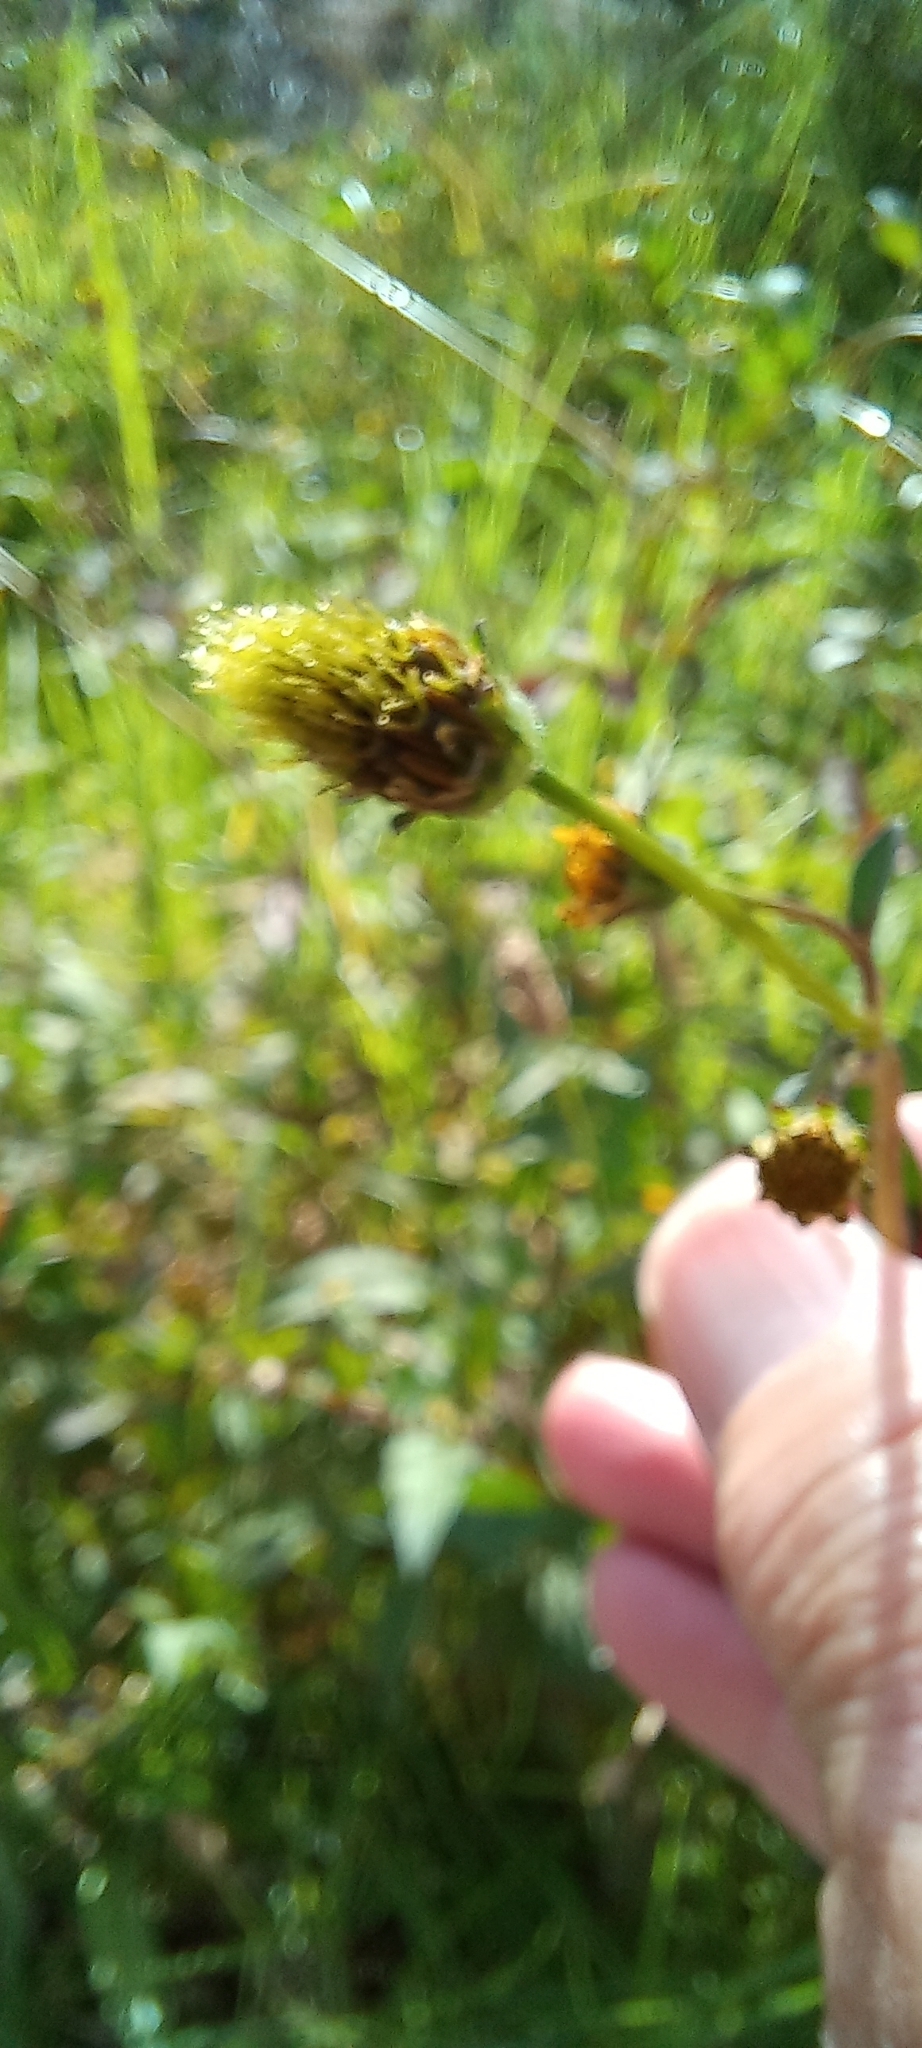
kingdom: Plantae
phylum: Tracheophyta
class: Magnoliopsida
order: Asterales
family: Asteraceae
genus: Bidens
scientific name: Bidens pilosa
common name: Black-jack
